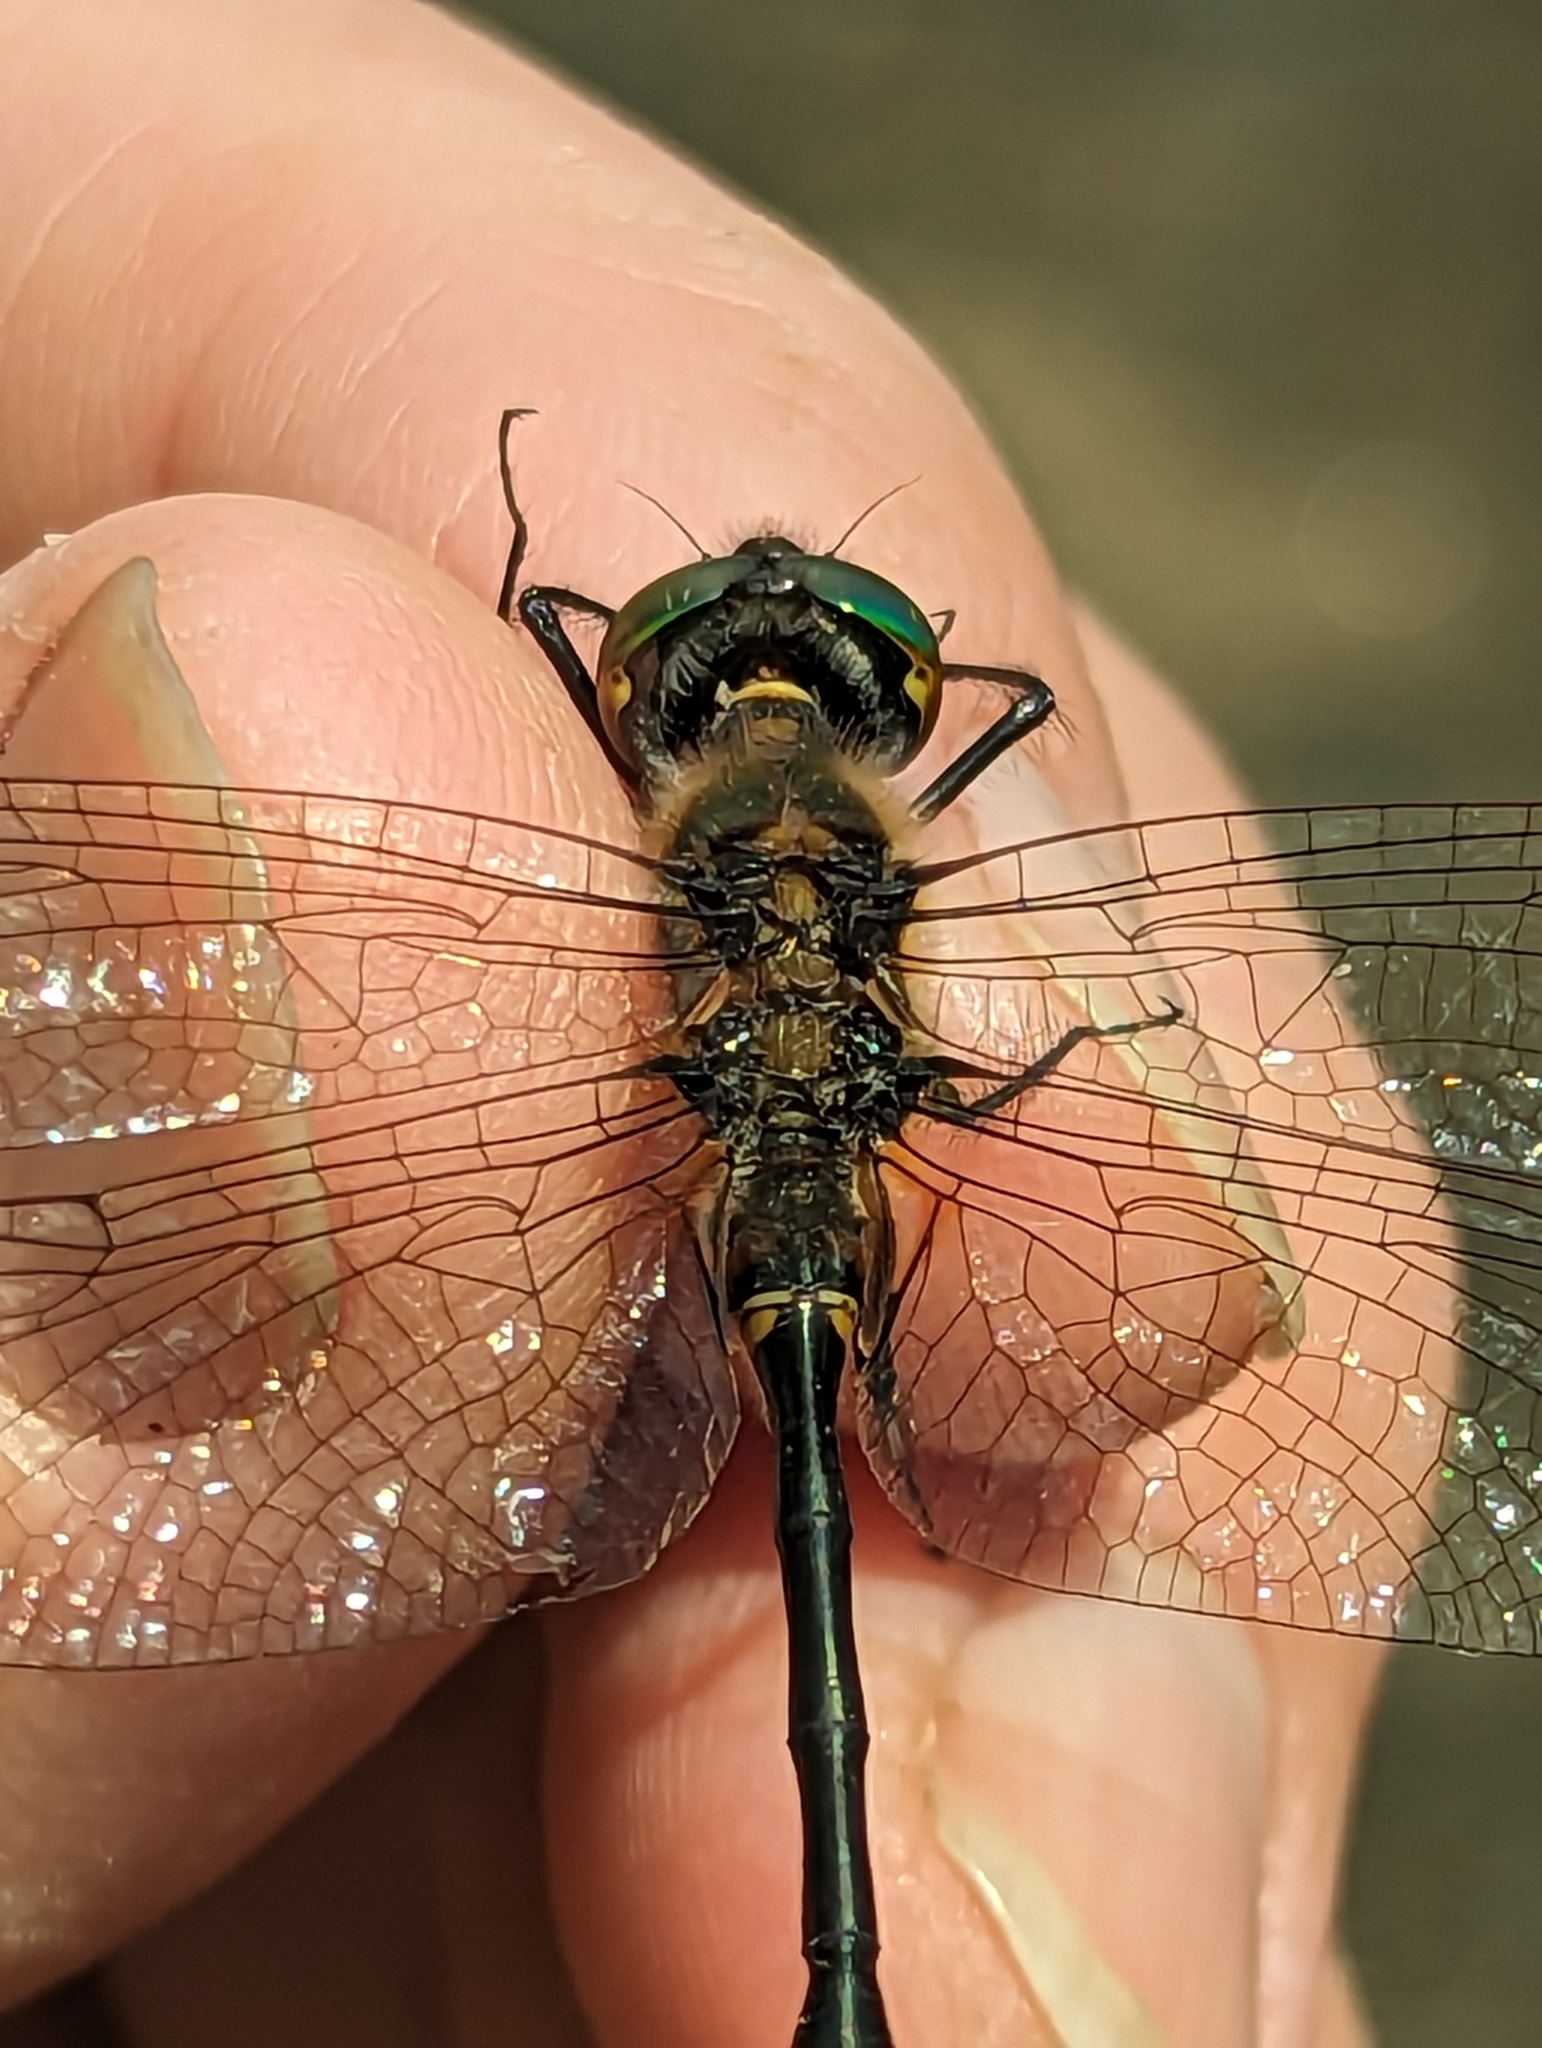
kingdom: Animalia
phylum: Arthropoda
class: Insecta
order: Odonata
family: Corduliidae
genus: Dorocordulia
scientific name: Dorocordulia libera
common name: Racket-tailed emerald
